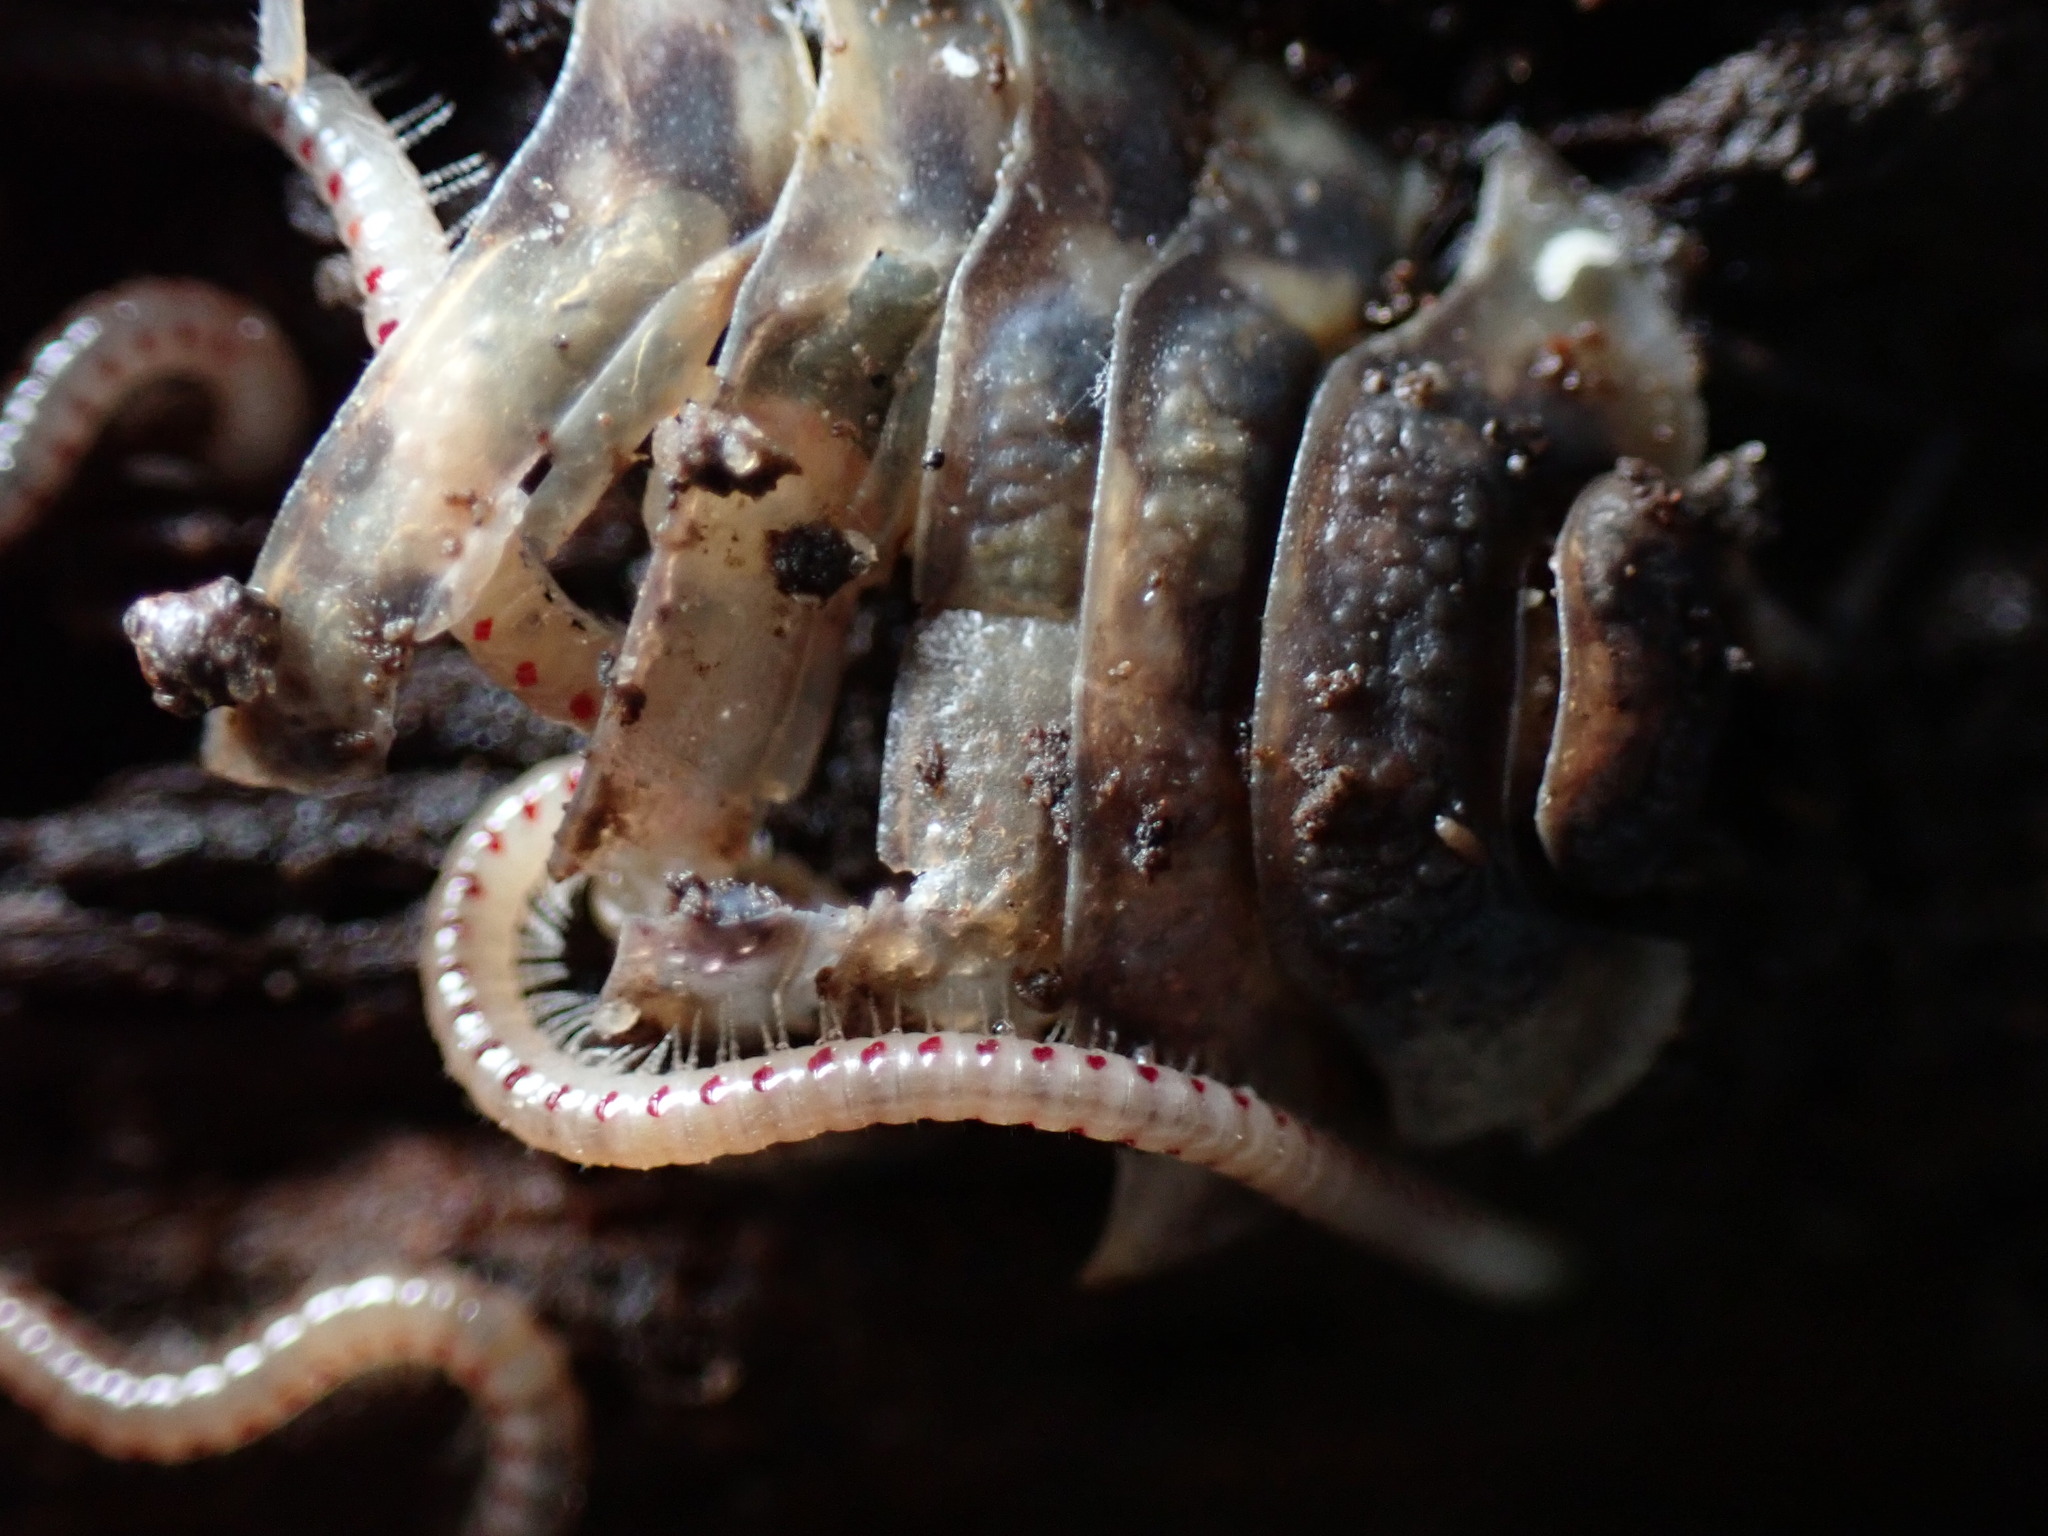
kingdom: Animalia
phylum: Arthropoda
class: Diplopoda
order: Julida
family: Blaniulidae
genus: Blaniulus
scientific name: Blaniulus guttulatus
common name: Spotted snake millipede
